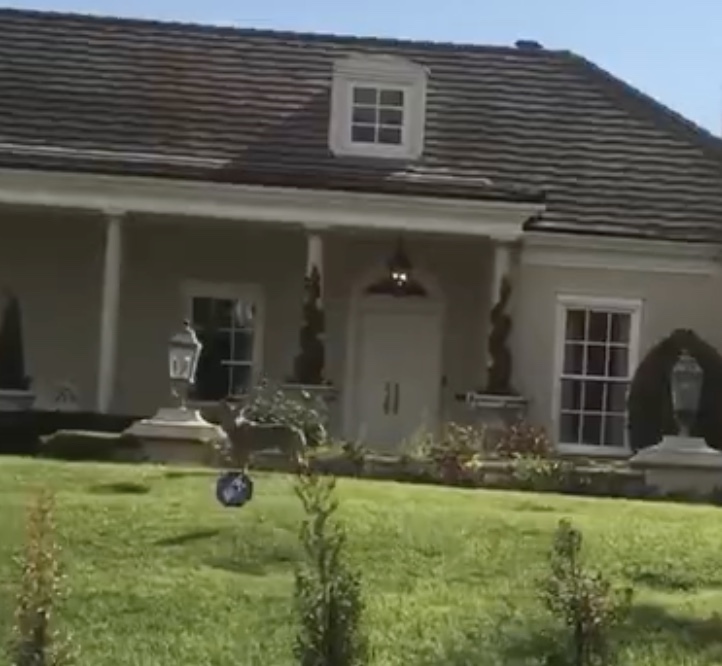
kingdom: Animalia
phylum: Chordata
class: Mammalia
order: Carnivora
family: Canidae
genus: Canis
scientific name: Canis latrans
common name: Coyote
